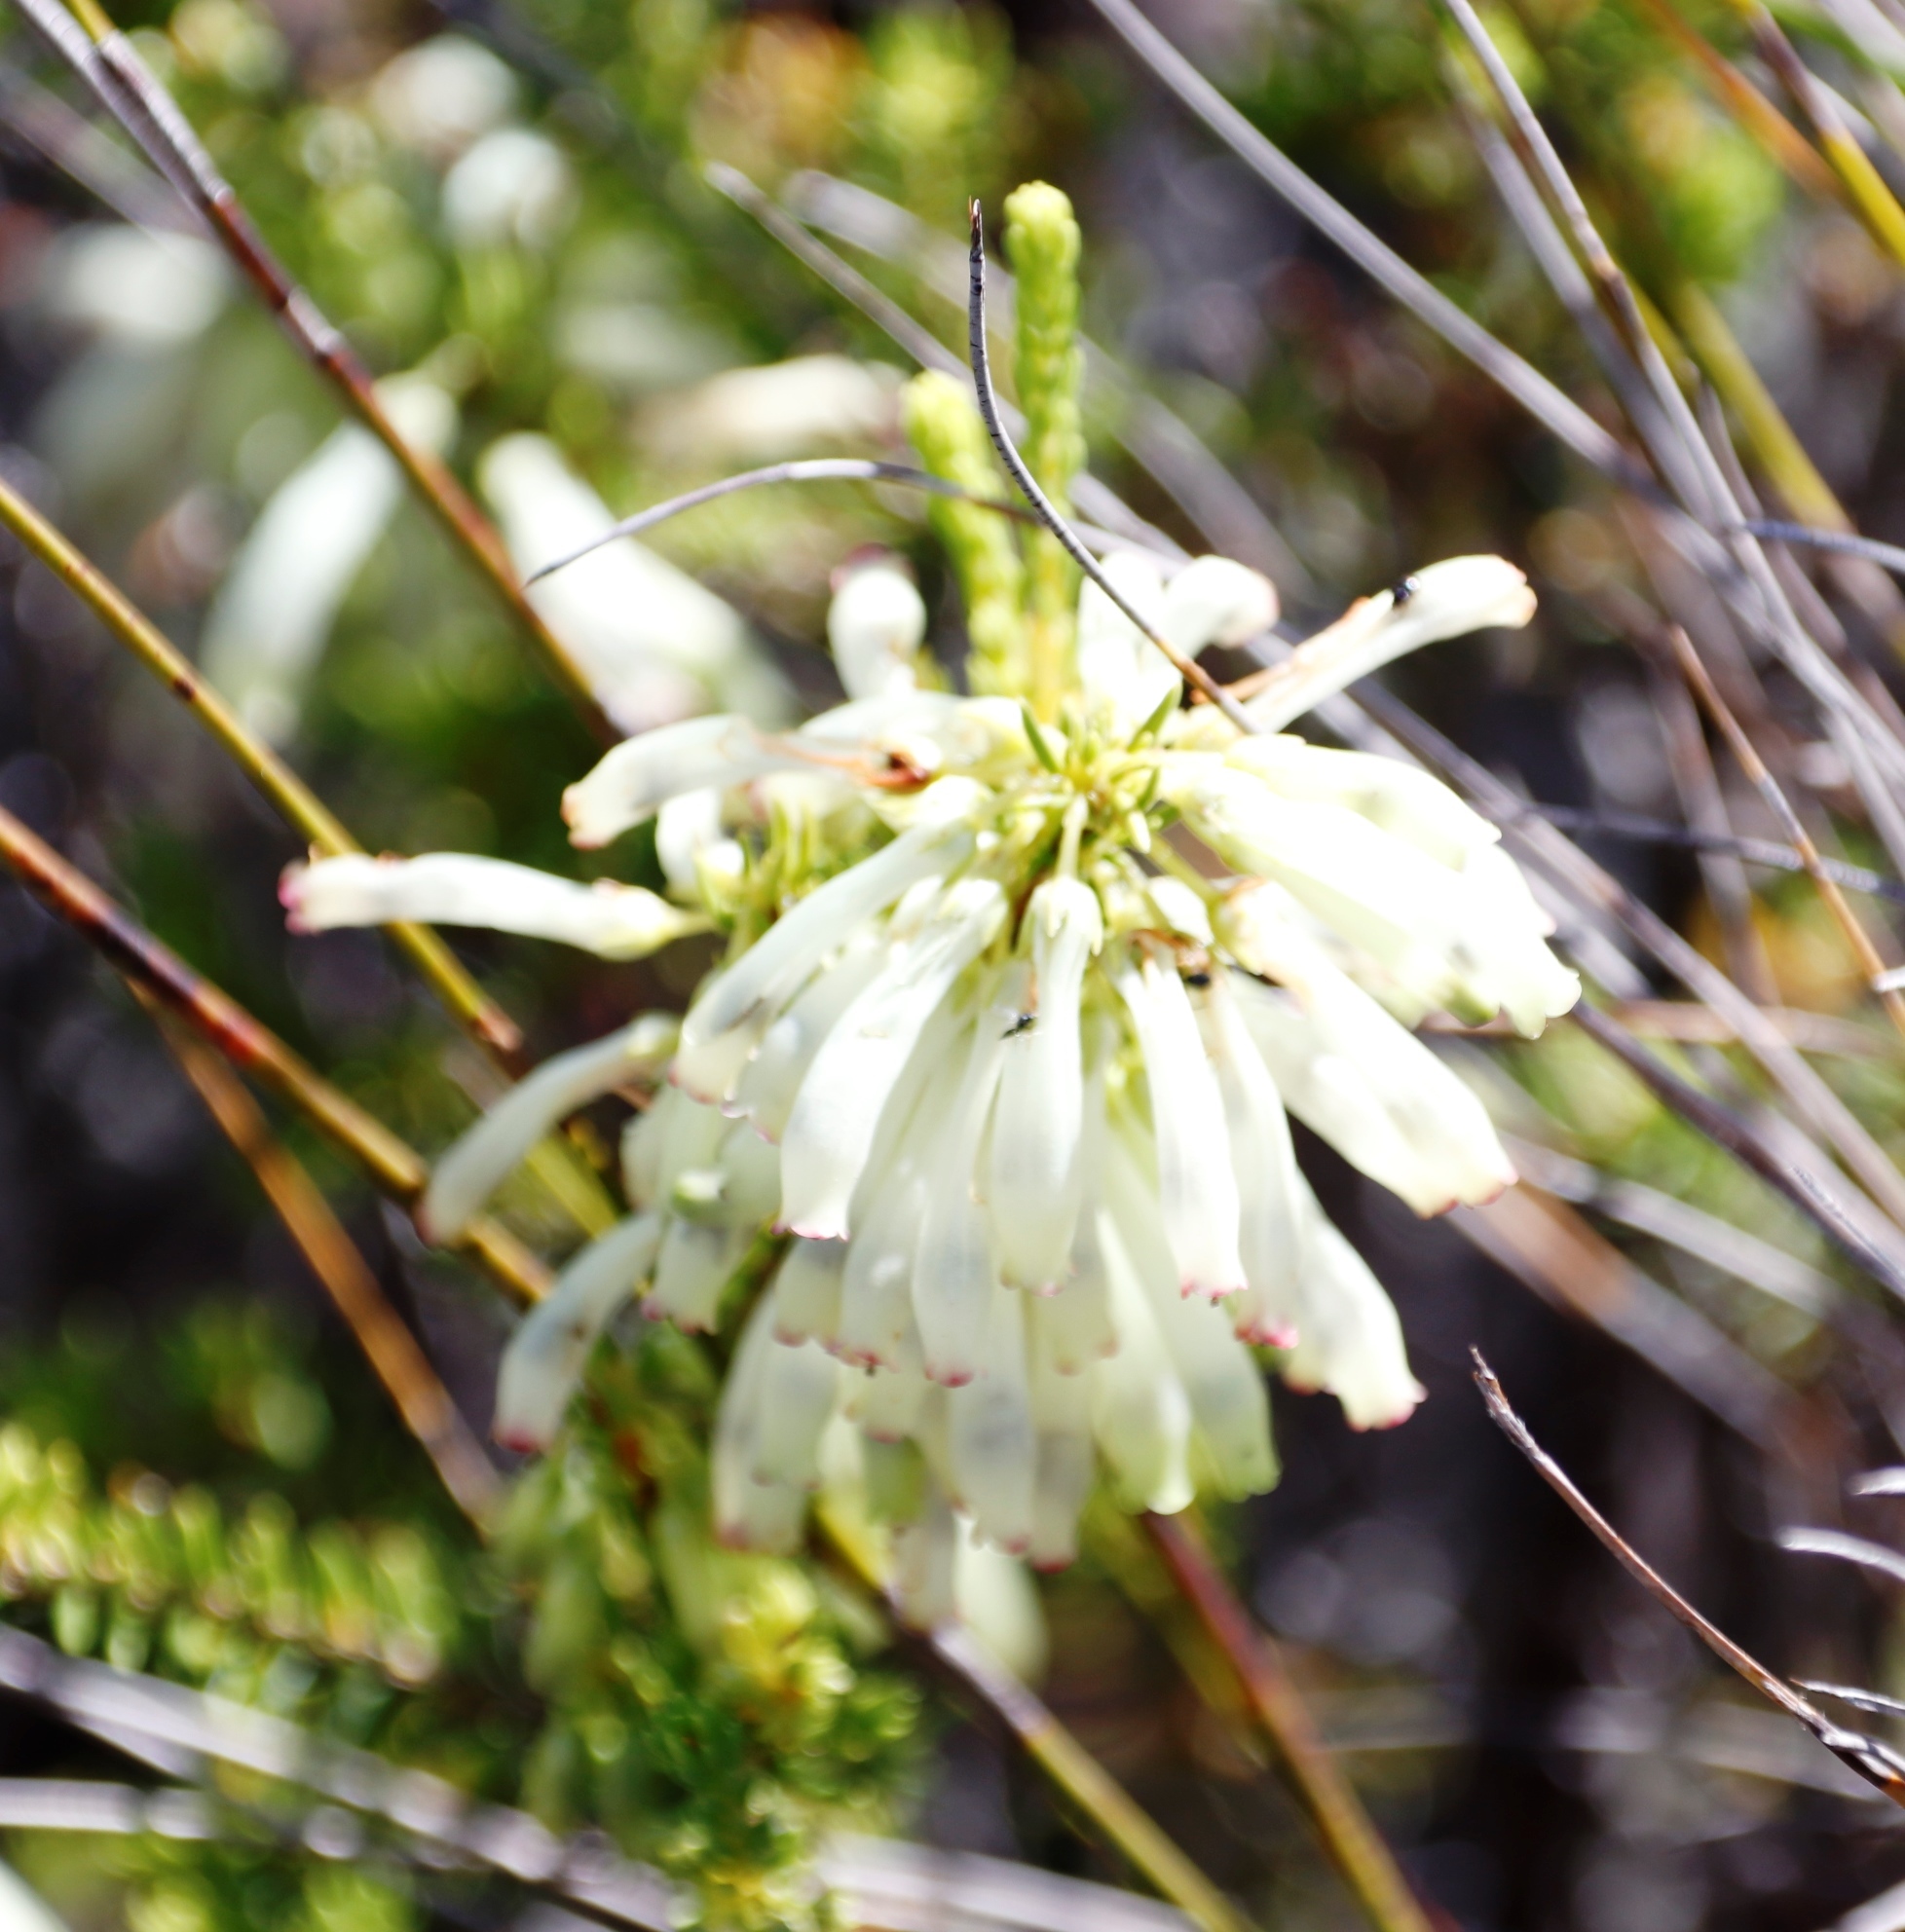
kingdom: Plantae
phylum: Tracheophyta
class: Magnoliopsida
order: Ericales
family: Ericaceae
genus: Erica
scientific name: Erica mammosa
